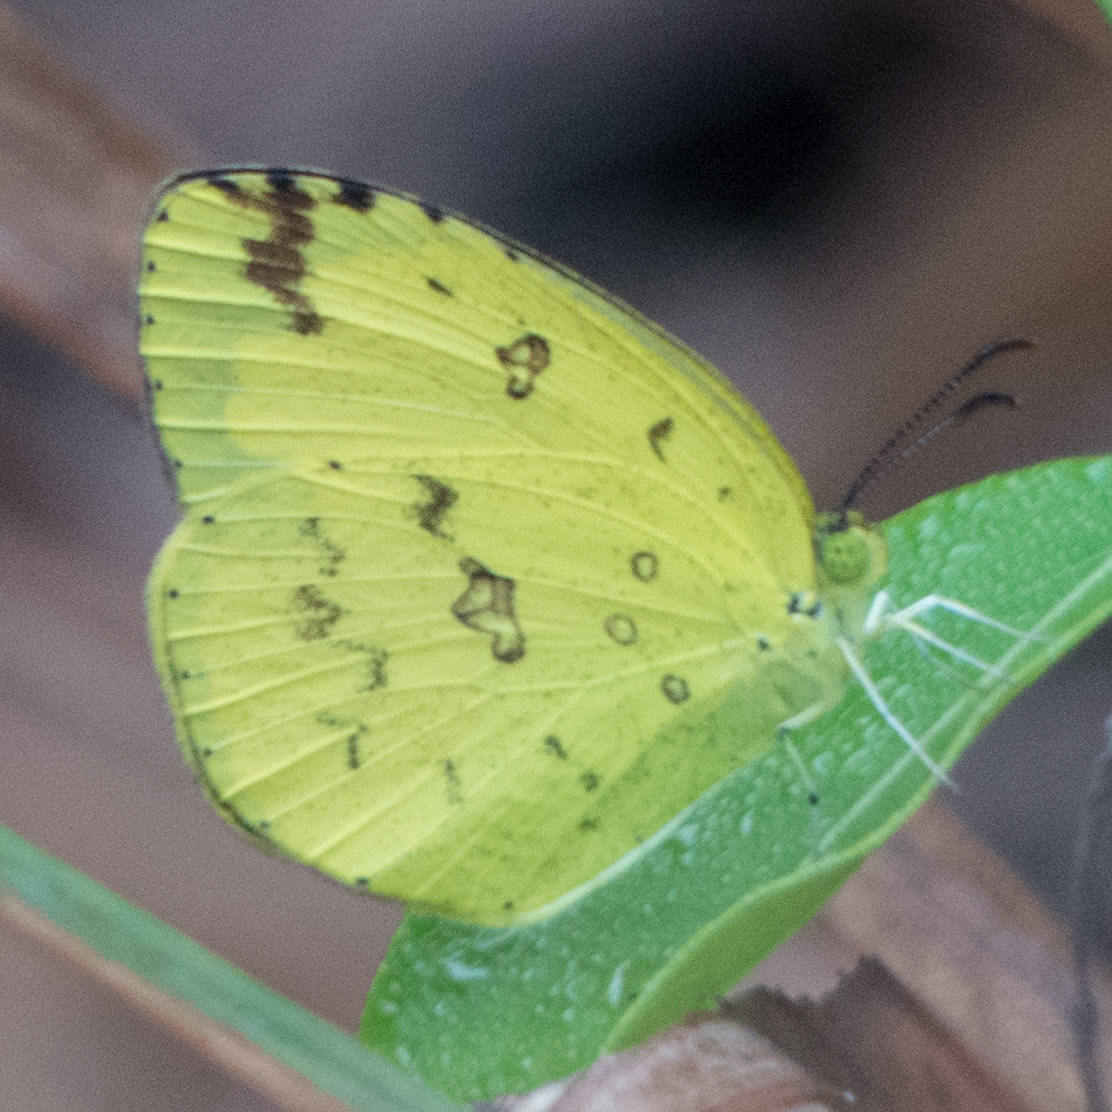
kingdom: Animalia
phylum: Arthropoda
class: Insecta
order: Lepidoptera
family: Pieridae
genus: Eurema
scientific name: Eurema hecabe
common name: Pale grass yellow
